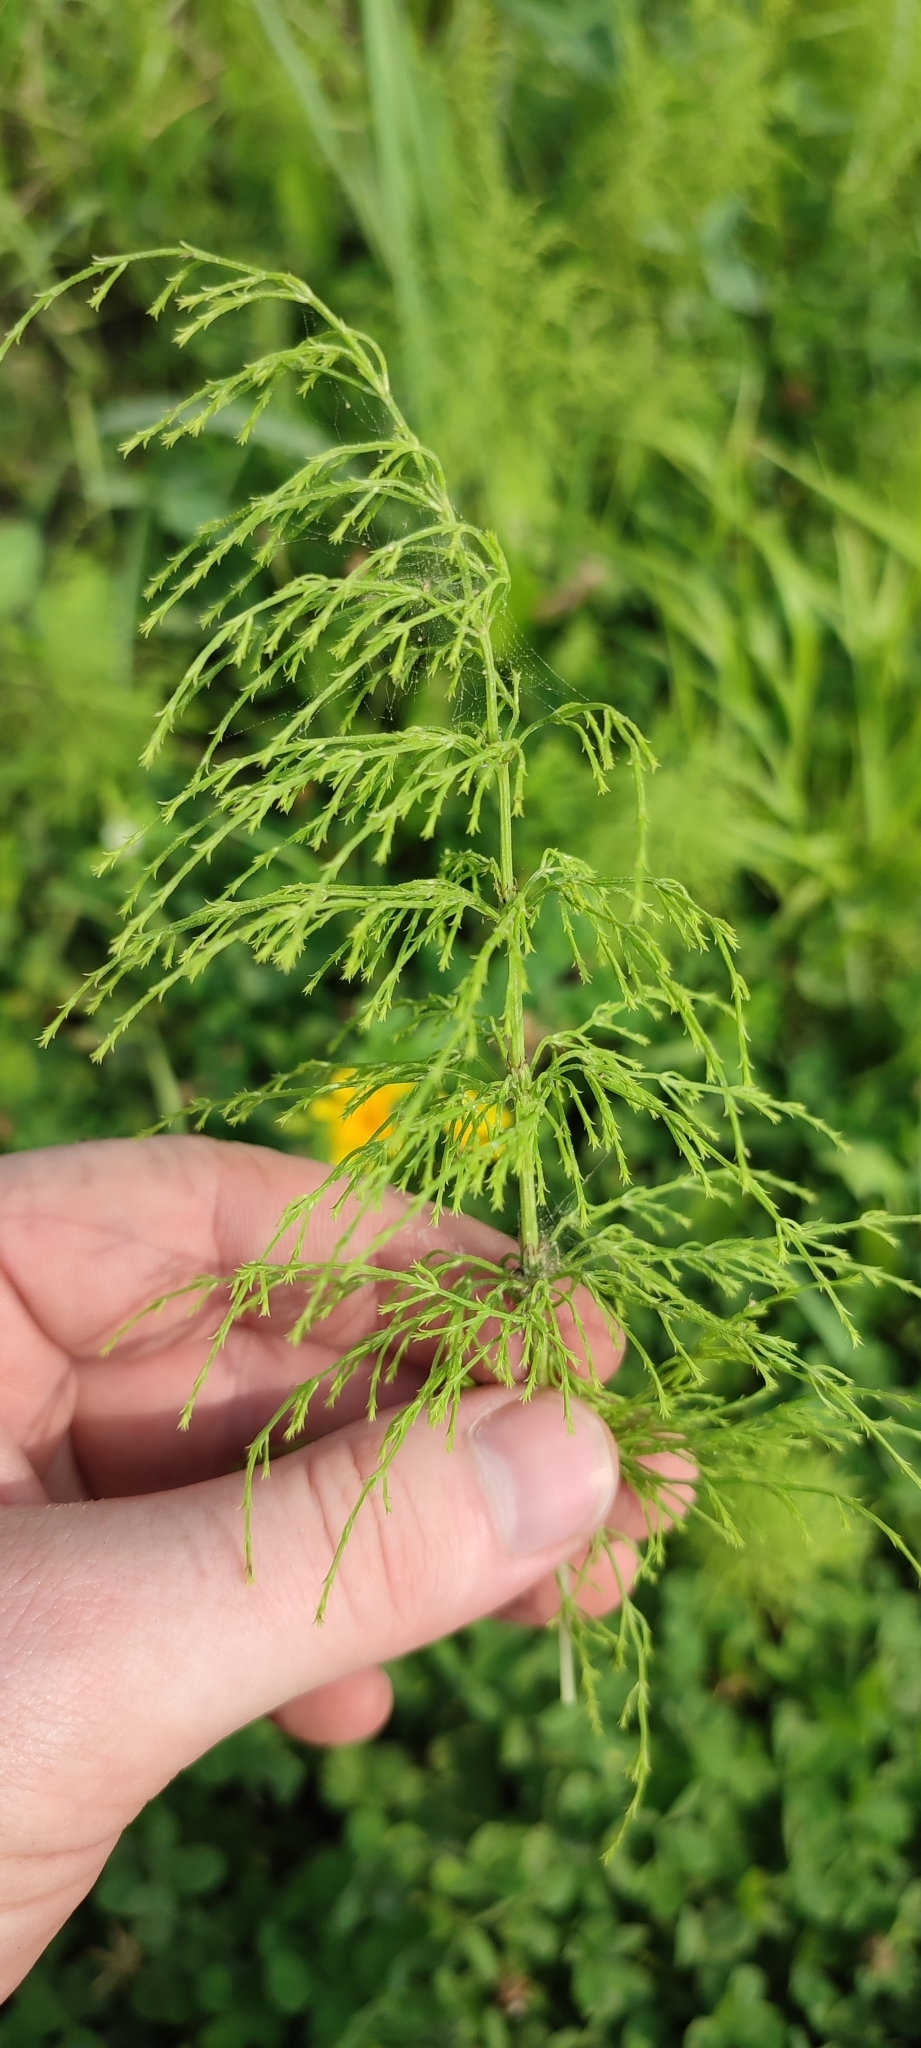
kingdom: Plantae
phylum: Tracheophyta
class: Polypodiopsida
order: Equisetales
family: Equisetaceae
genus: Equisetum
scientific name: Equisetum sylvaticum
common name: Wood horsetail
